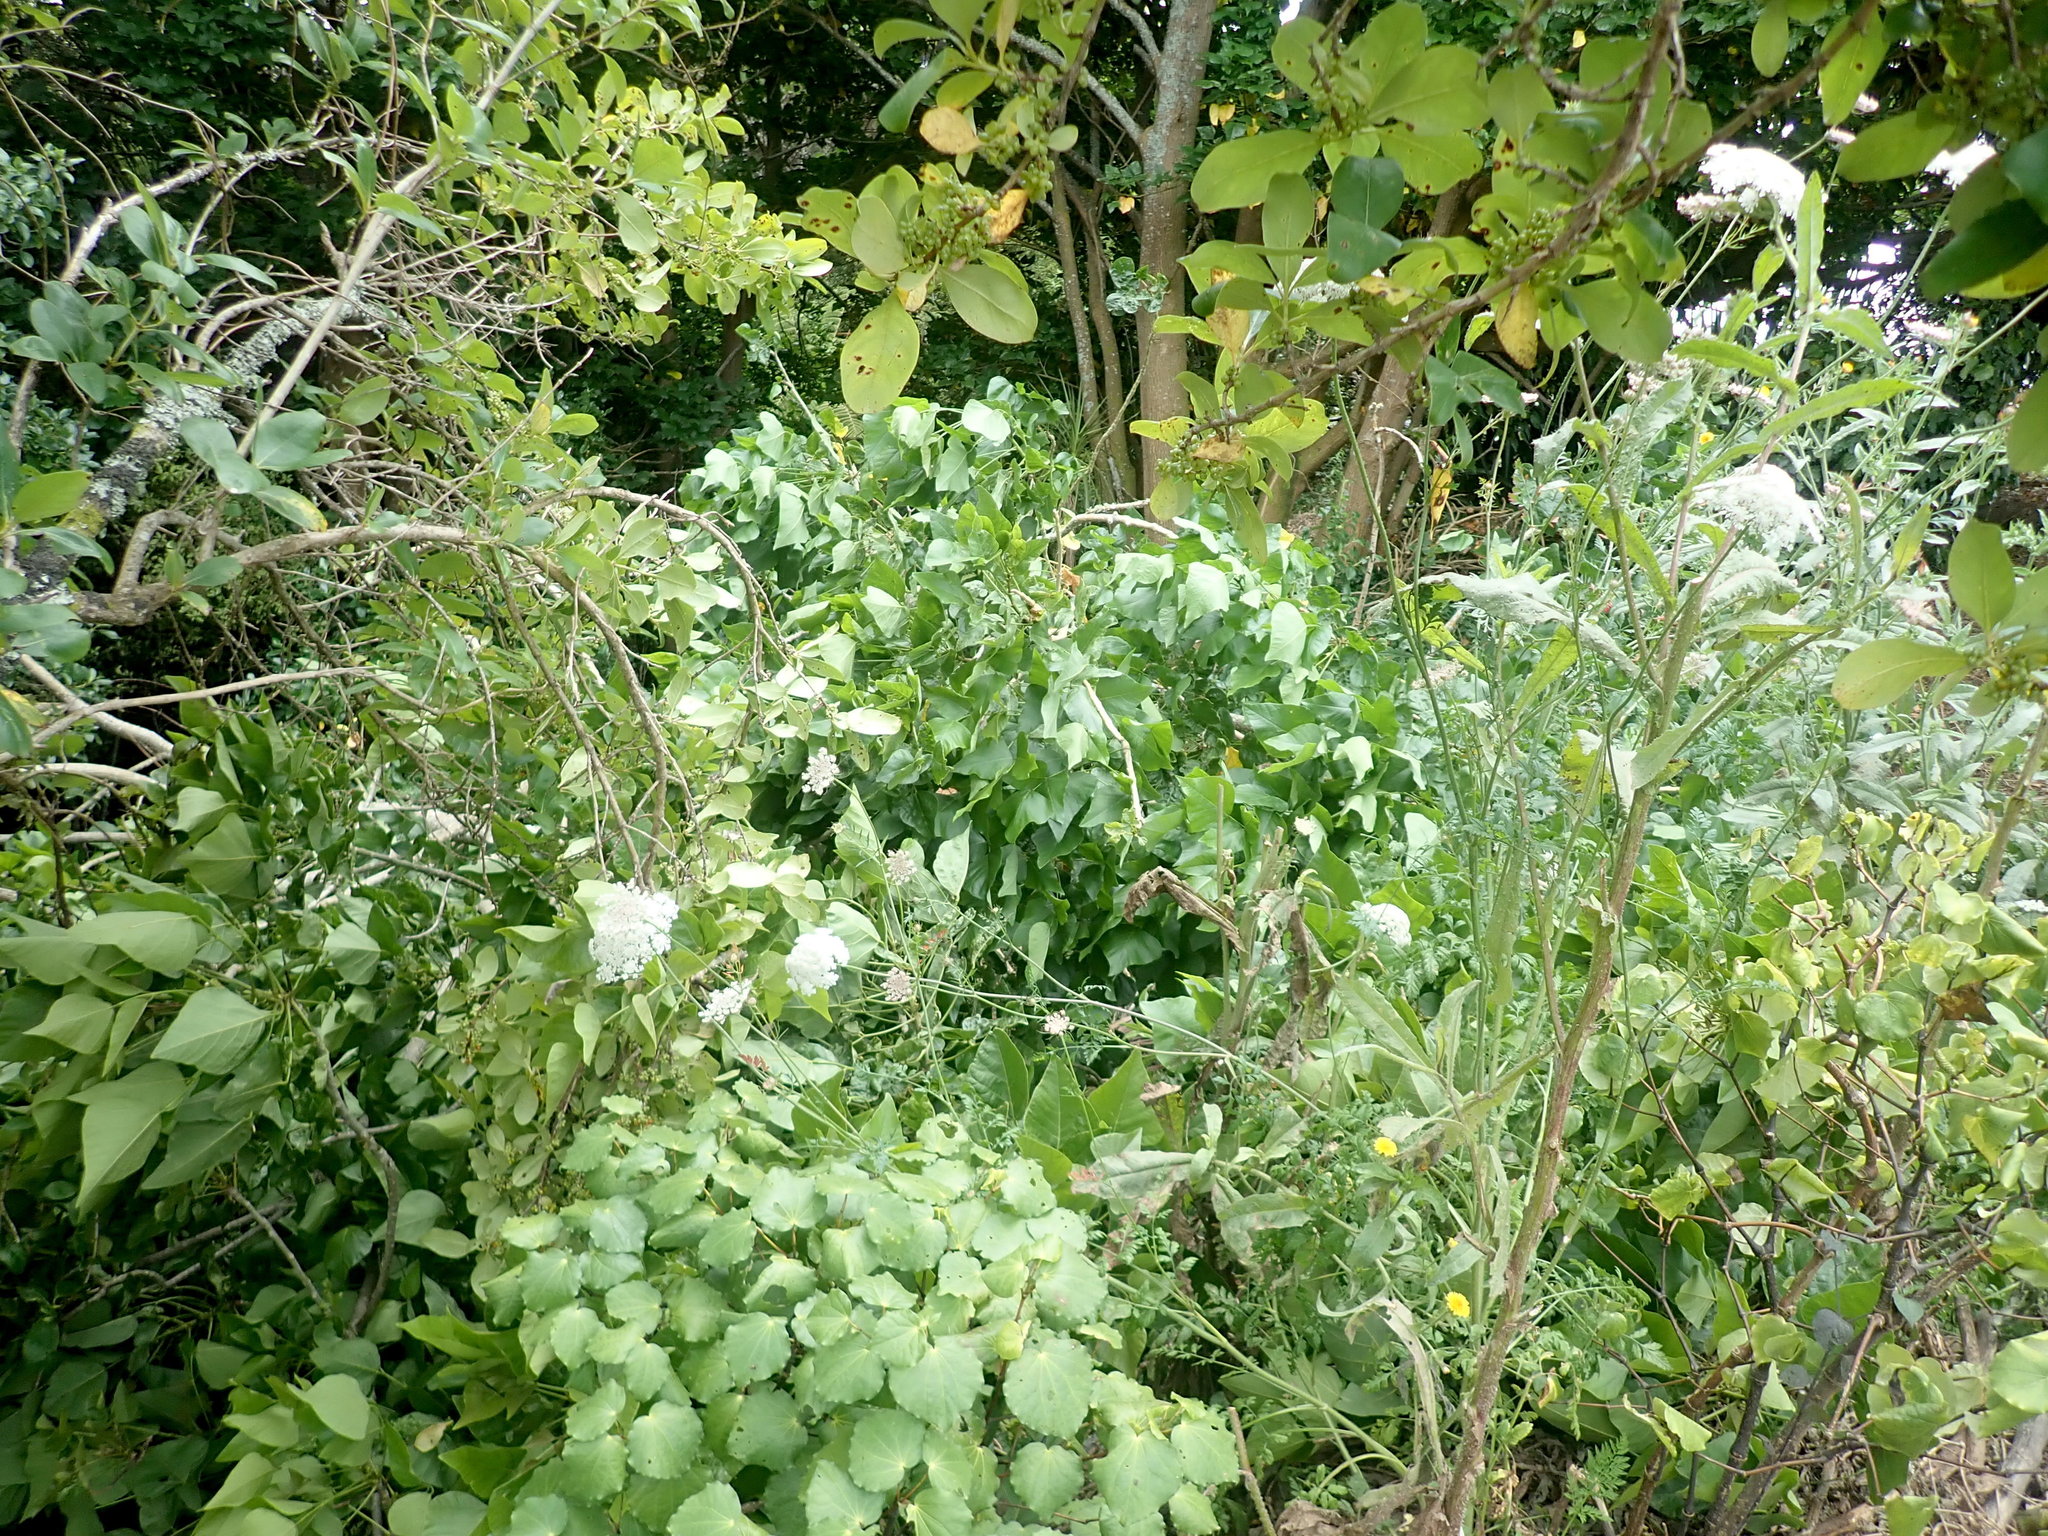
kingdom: Plantae
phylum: Tracheophyta
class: Magnoliopsida
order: Piperales
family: Piperaceae
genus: Macropiper
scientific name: Macropiper excelsum
